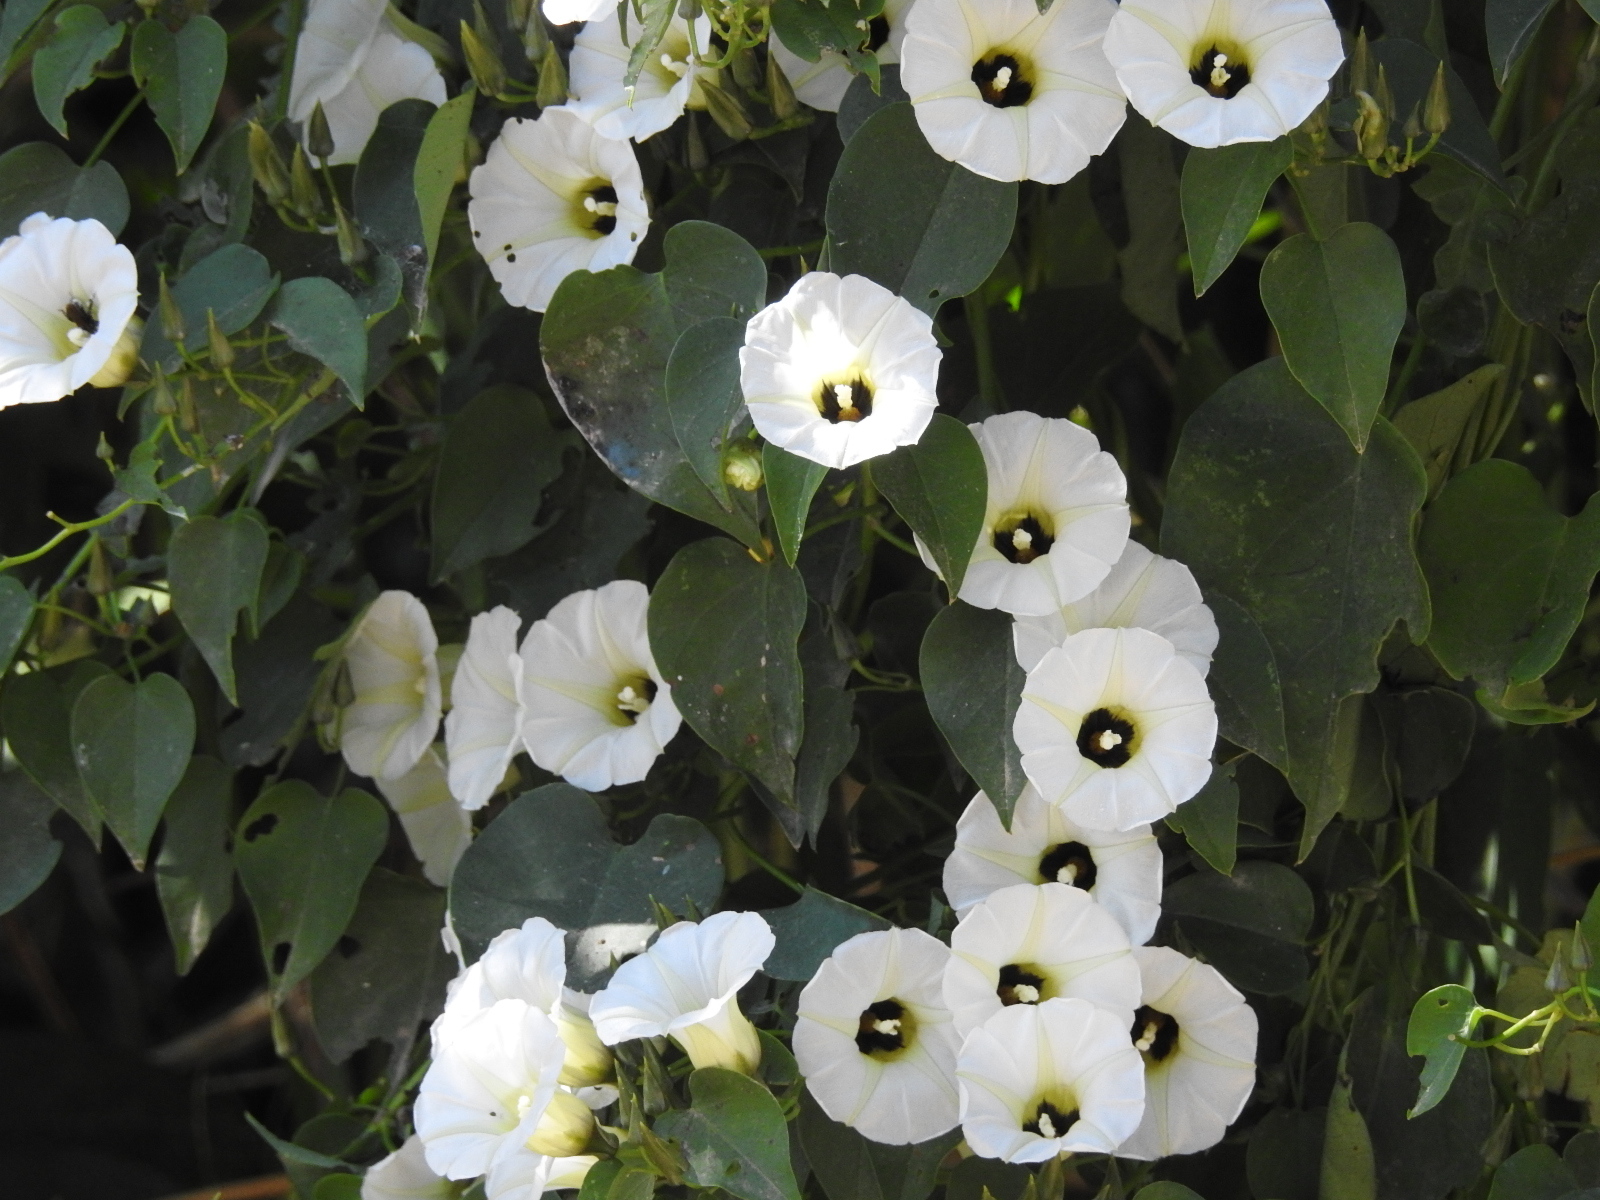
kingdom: Plantae
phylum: Tracheophyta
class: Magnoliopsida
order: Solanales
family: Convolvulaceae
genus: Ipomoea
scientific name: Ipomoea corymbosa
